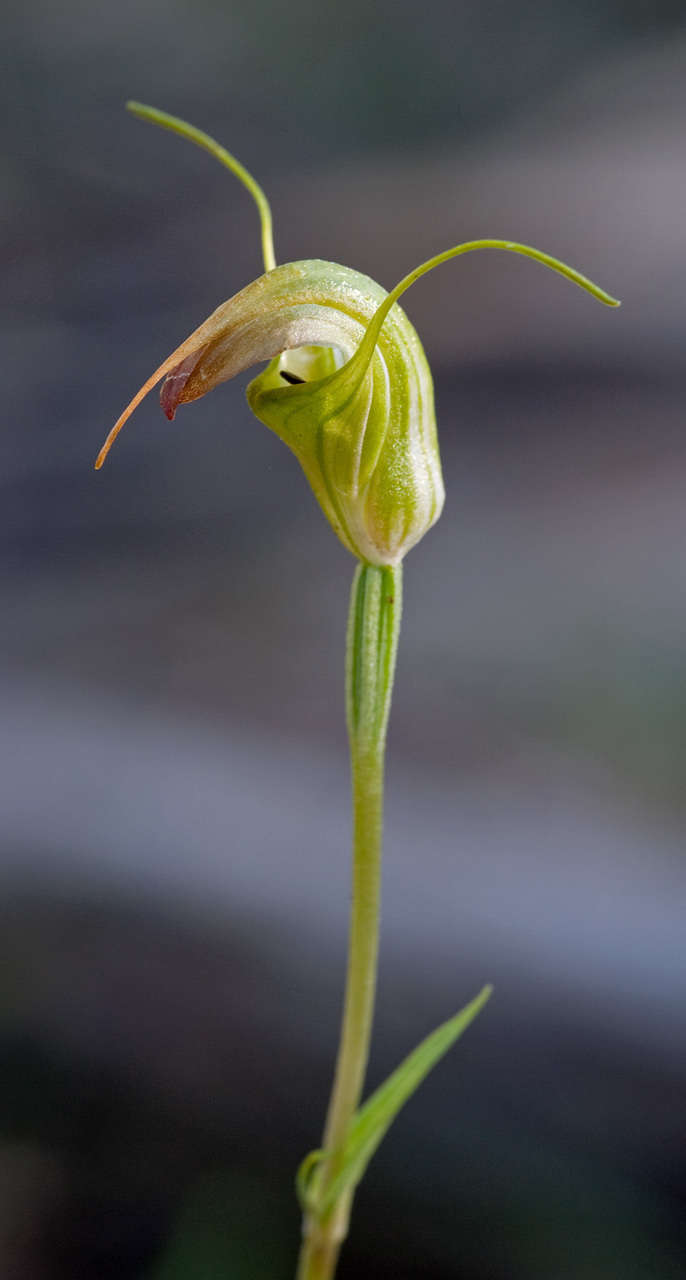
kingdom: Plantae
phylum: Tracheophyta
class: Liliopsida
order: Asparagales
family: Orchidaceae
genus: Pterostylis
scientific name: Pterostylis atrans
